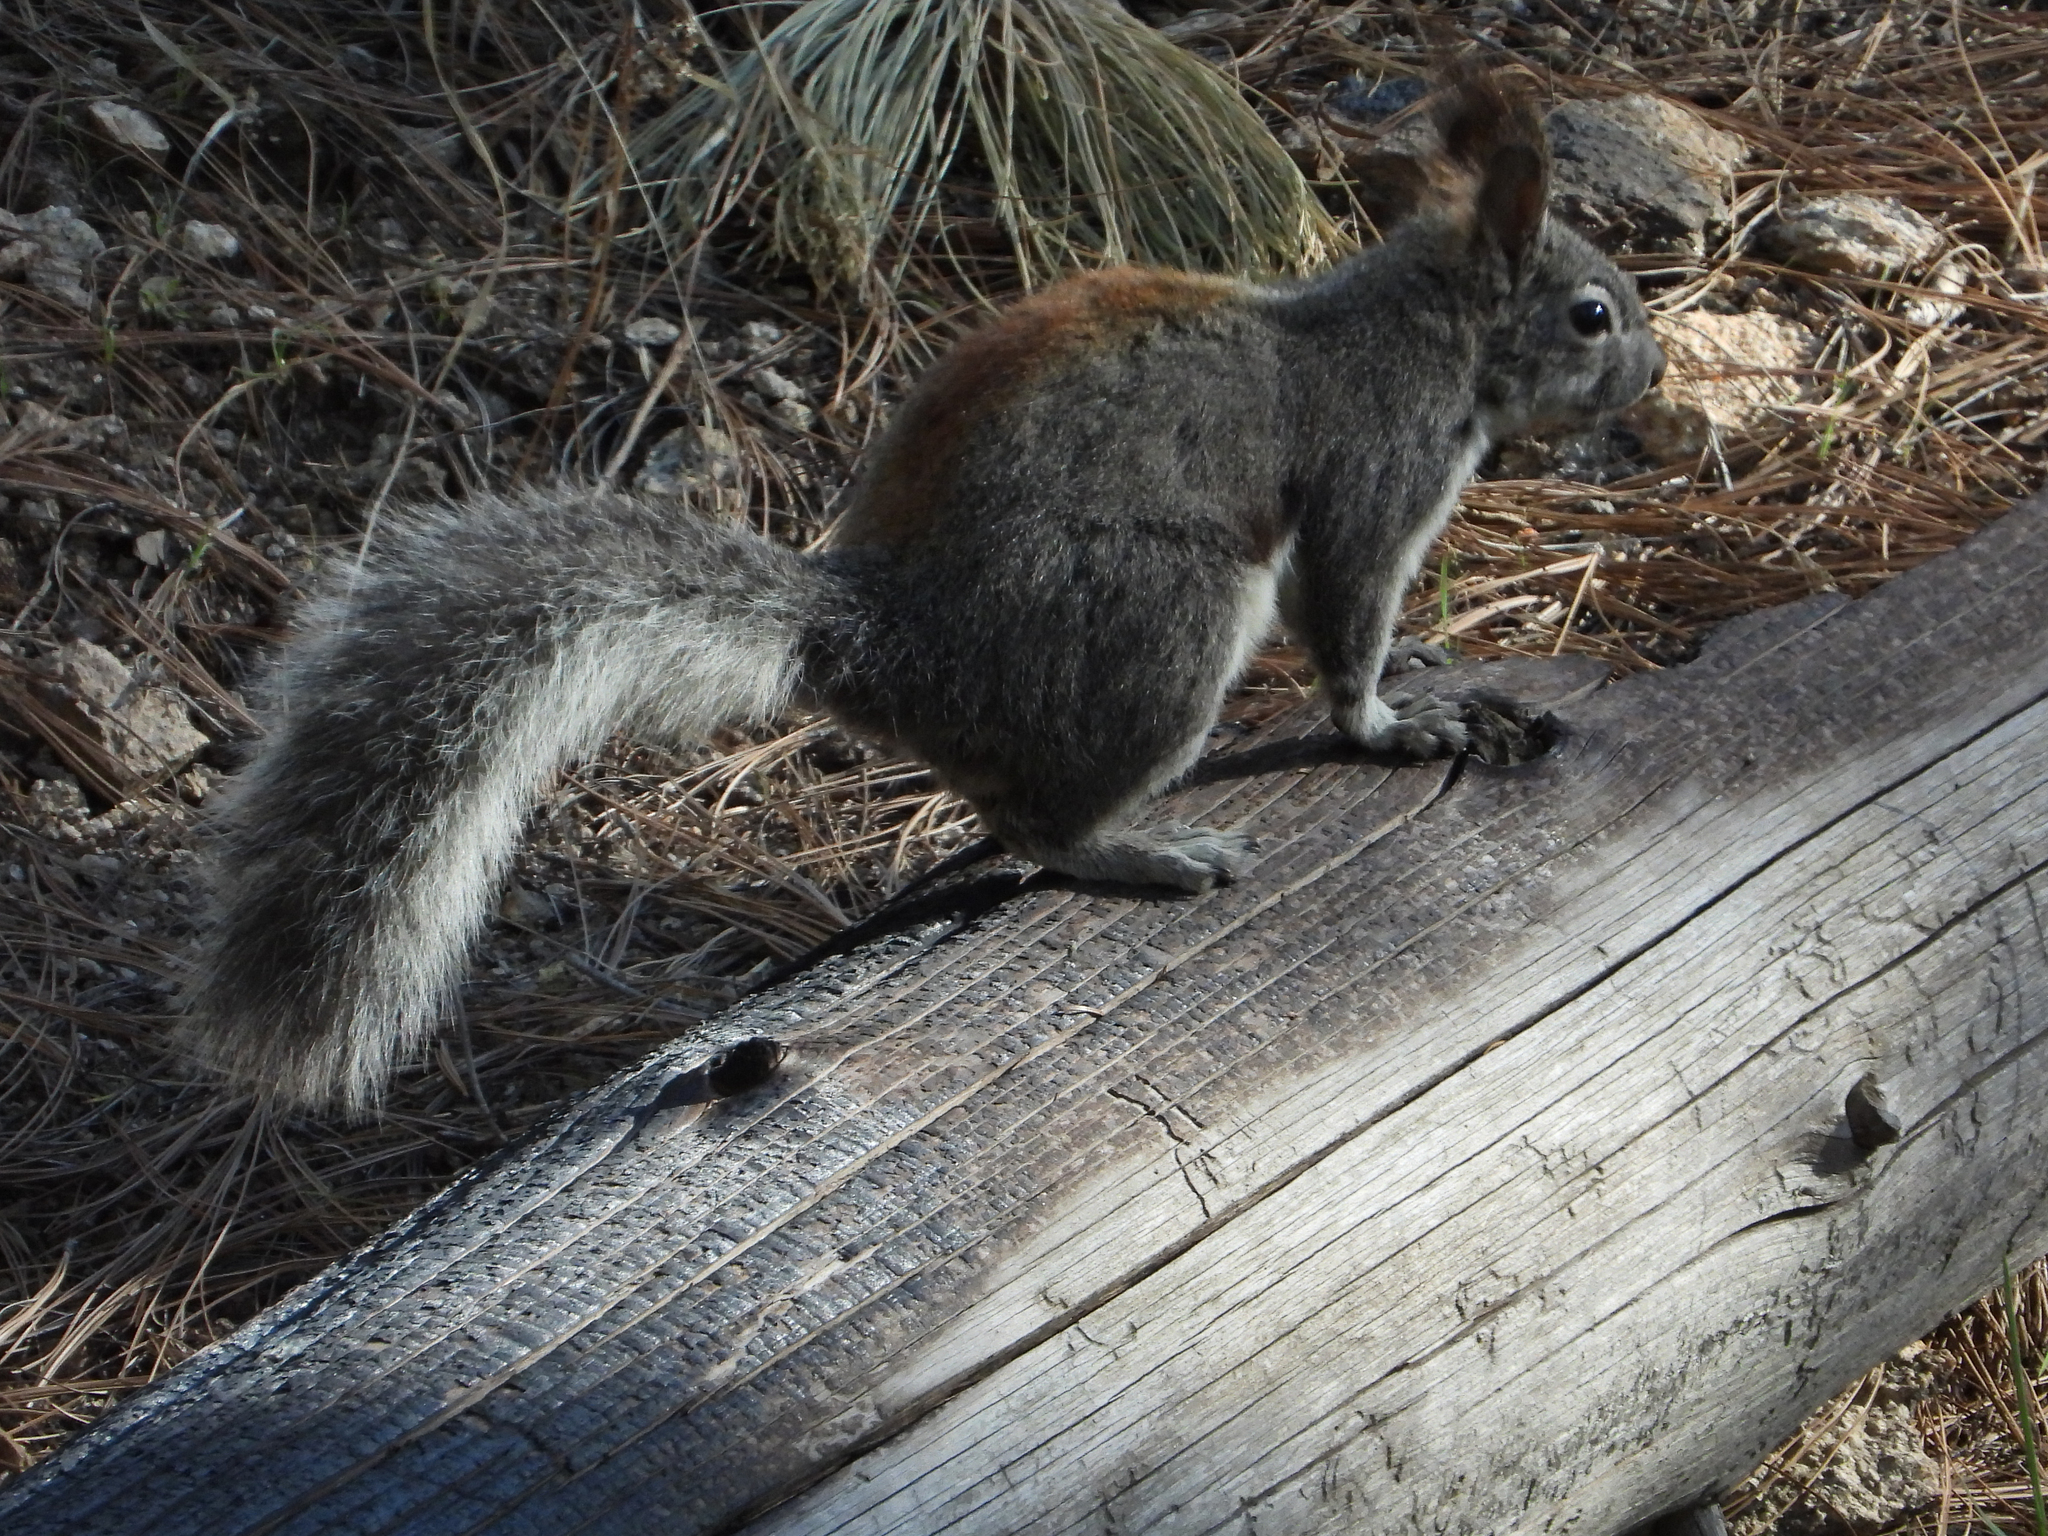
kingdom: Animalia
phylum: Chordata
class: Mammalia
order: Rodentia
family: Sciuridae
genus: Sciurus
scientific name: Sciurus aberti
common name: Abert's squirrel
